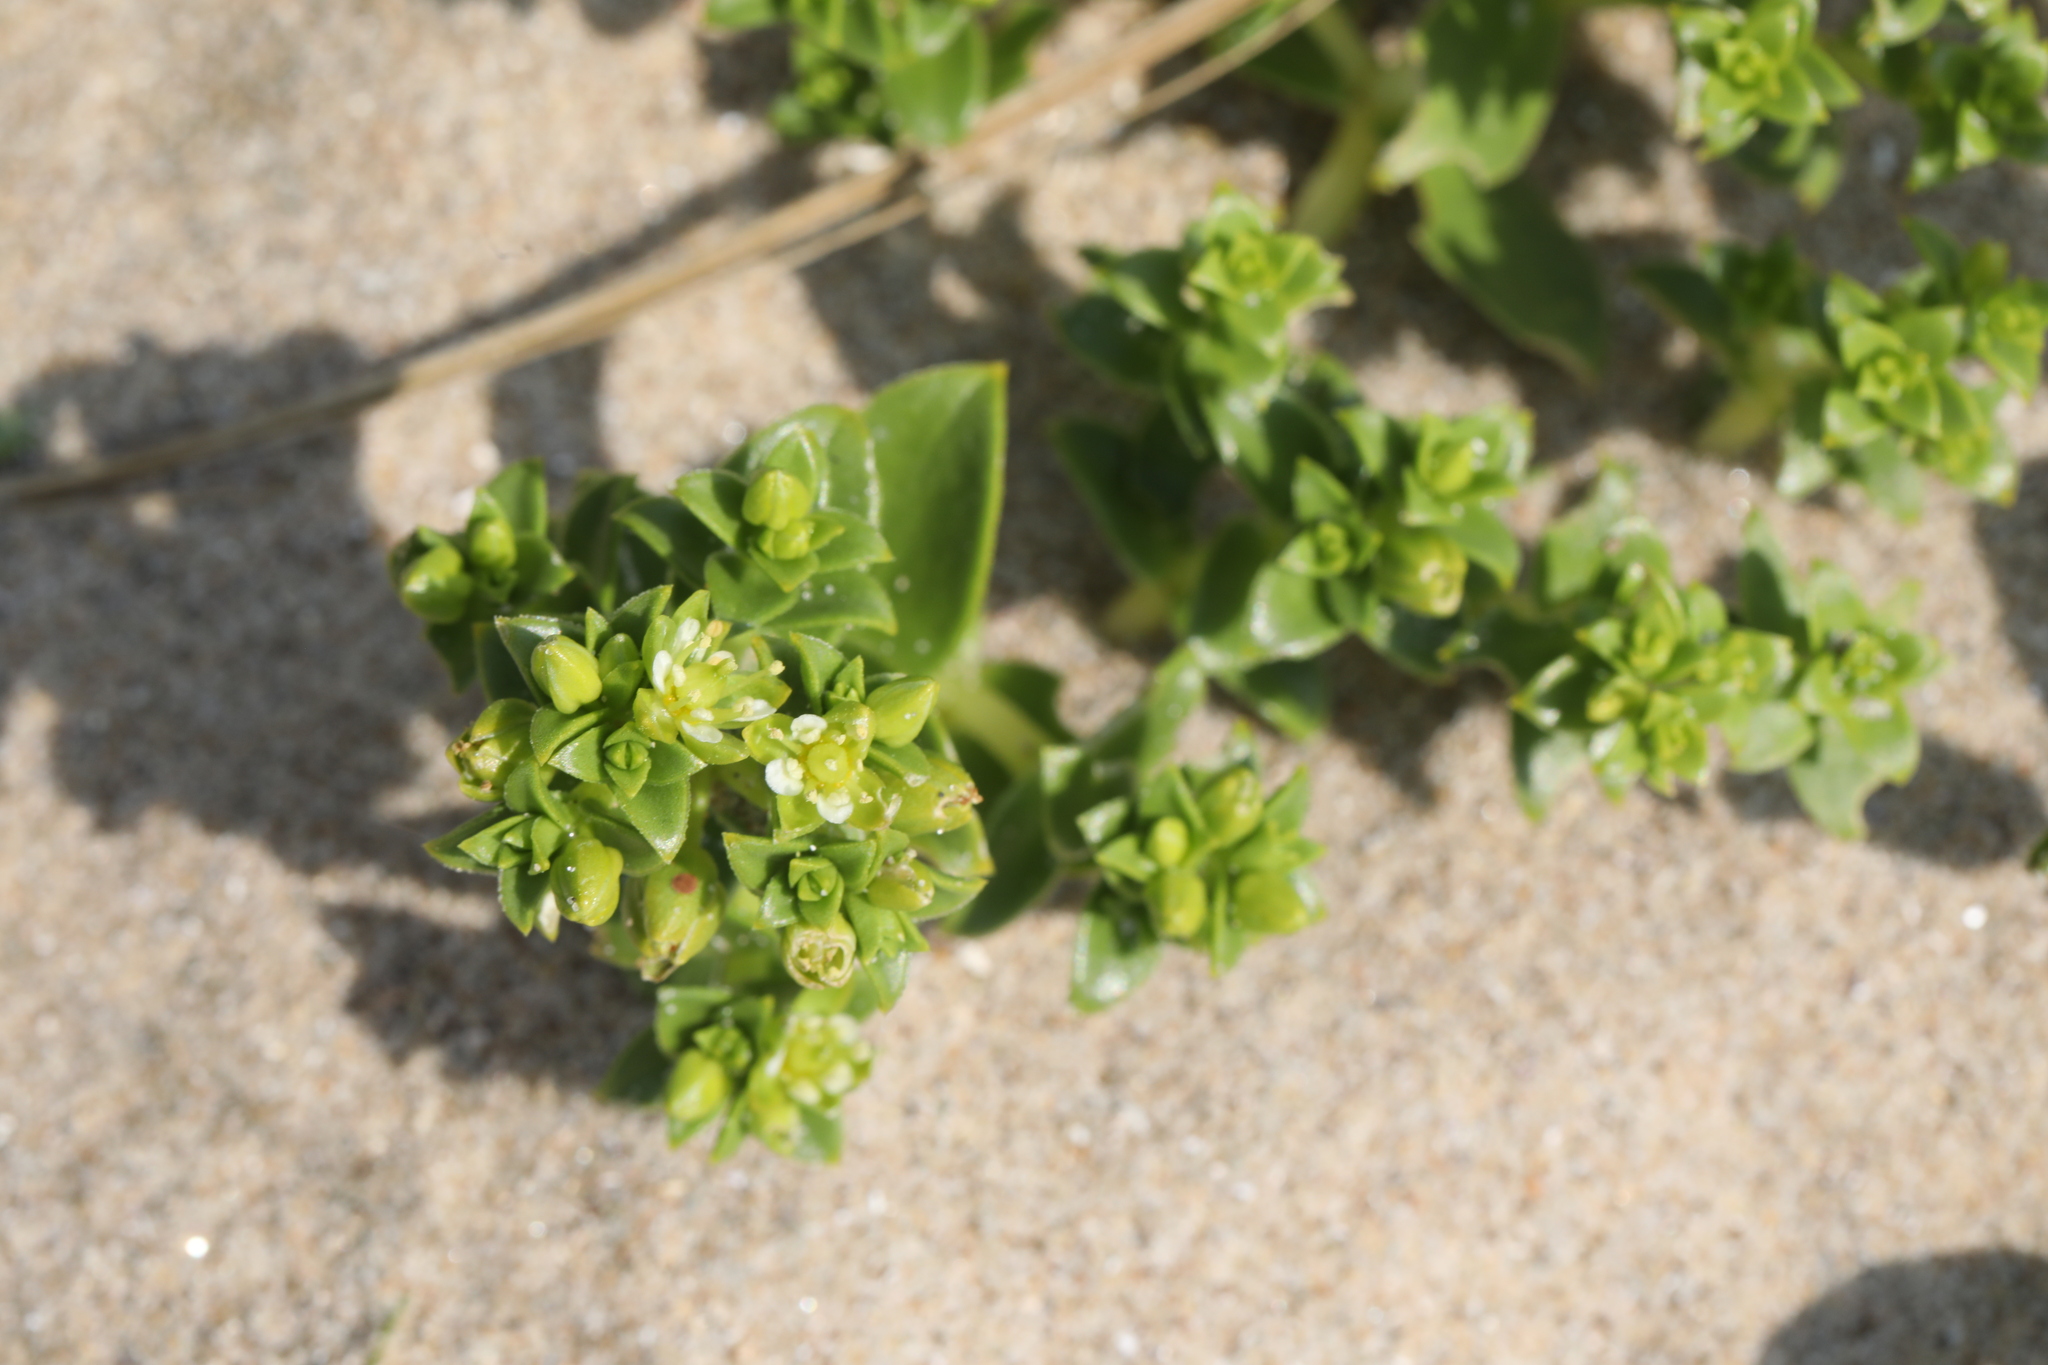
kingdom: Plantae
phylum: Tracheophyta
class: Magnoliopsida
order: Caryophyllales
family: Caryophyllaceae
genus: Honckenya
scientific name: Honckenya peploides
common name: Sea sandwort
